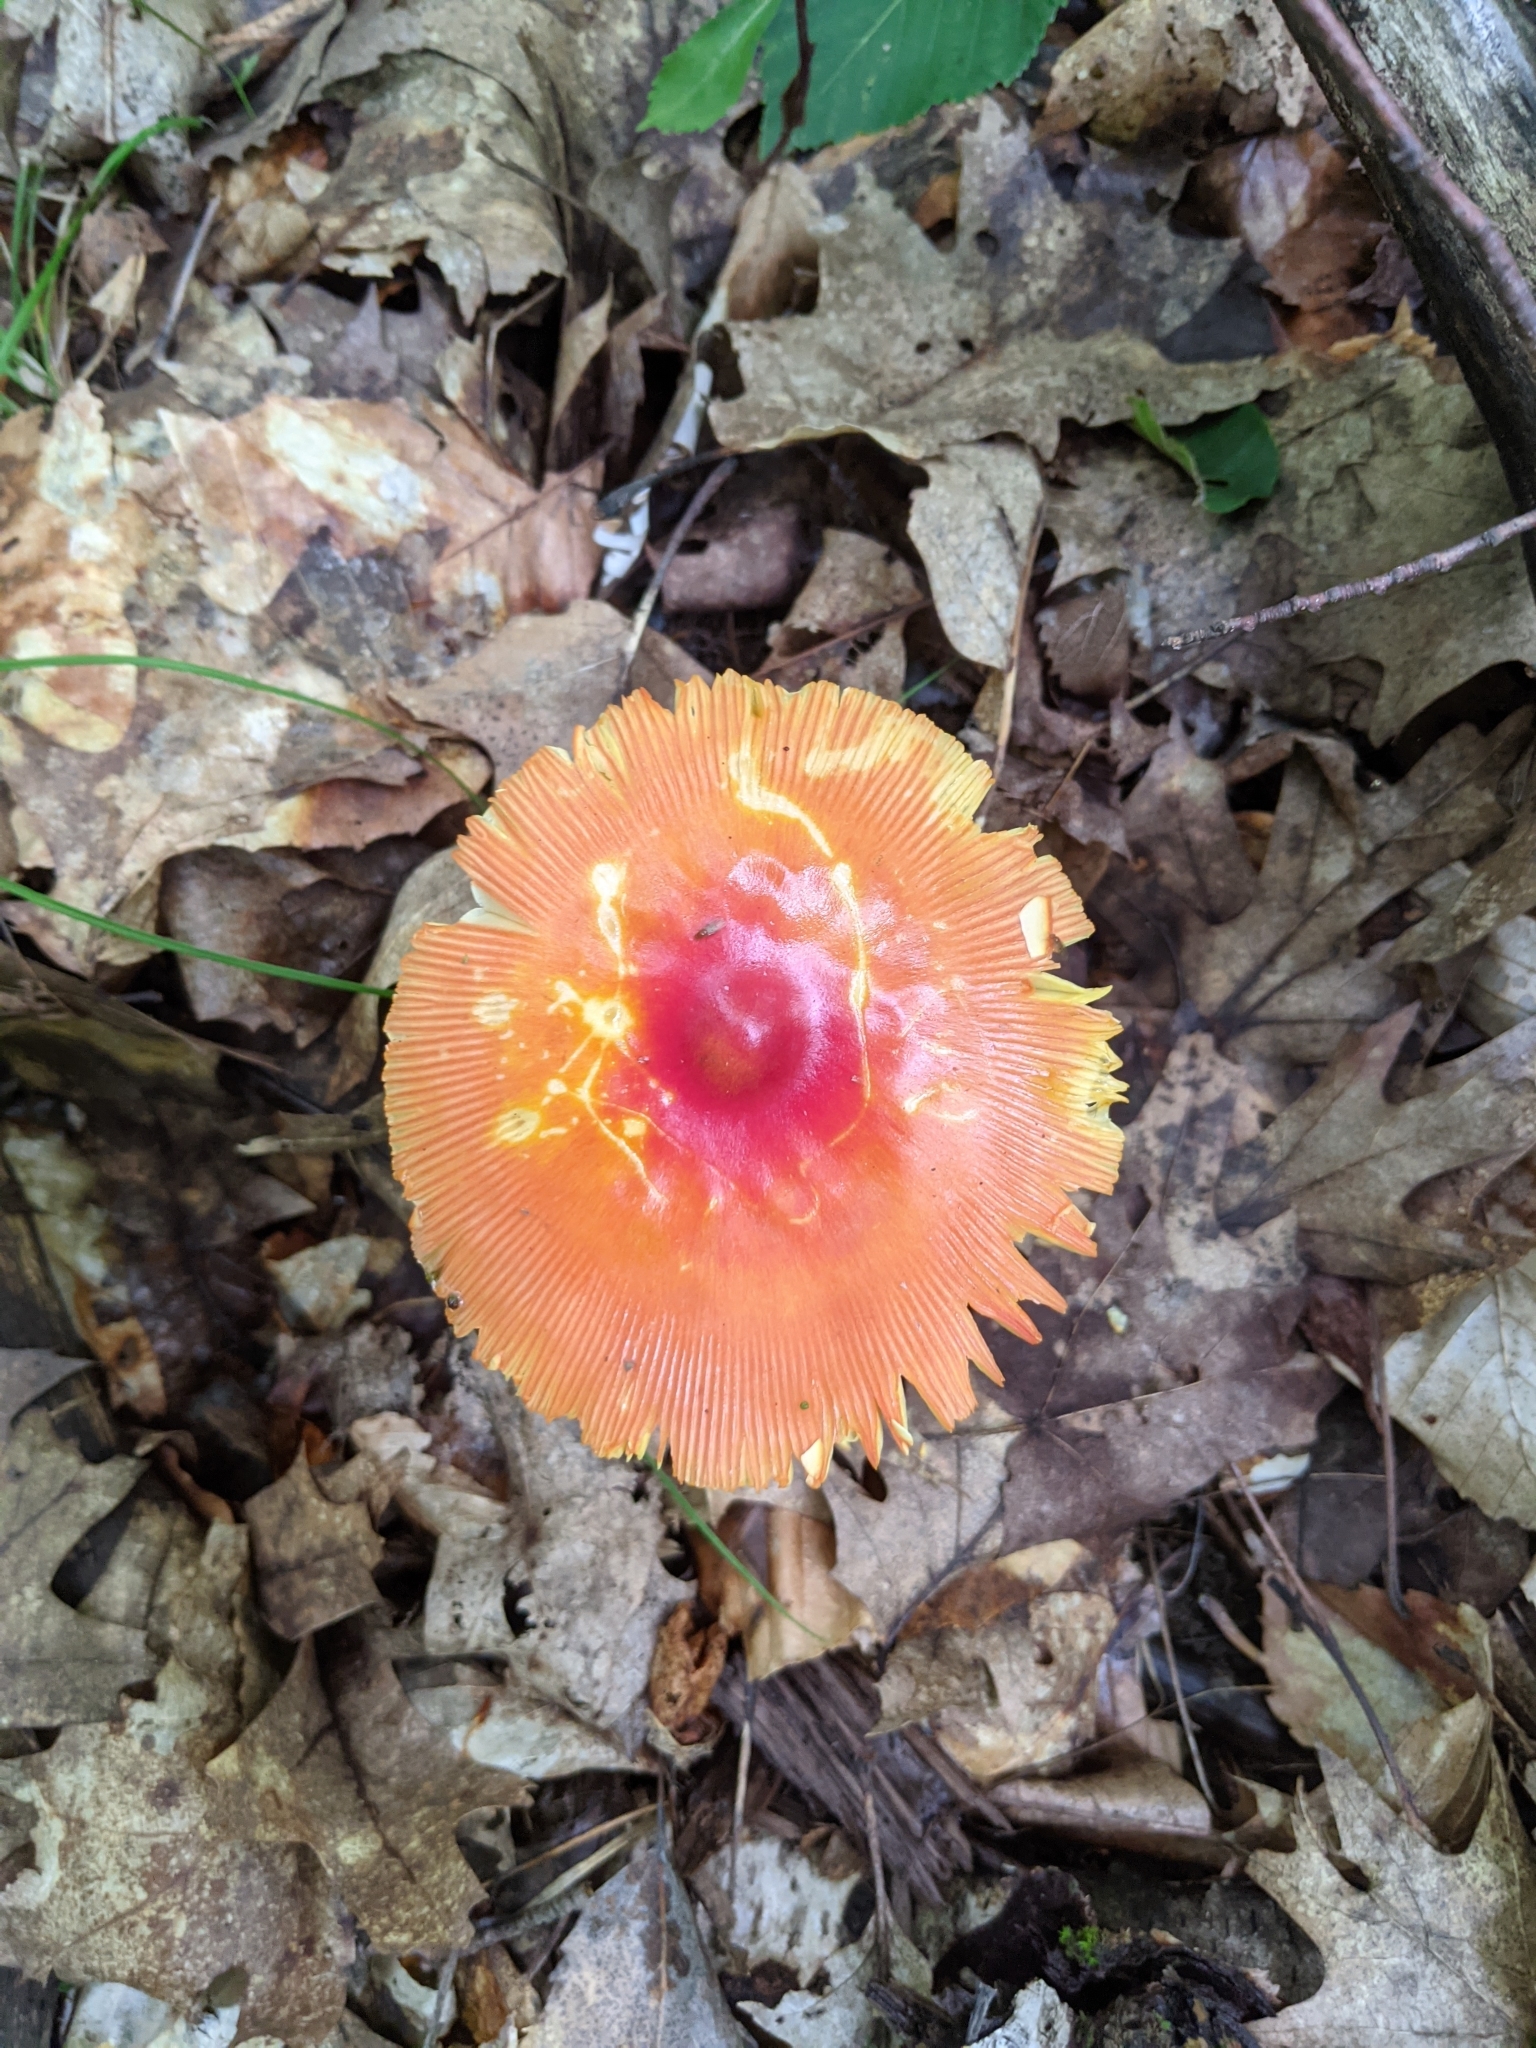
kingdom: Fungi
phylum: Basidiomycota
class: Agaricomycetes
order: Agaricales
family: Amanitaceae
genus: Amanita
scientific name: Amanita jacksonii
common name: Jackson's slender caesar
